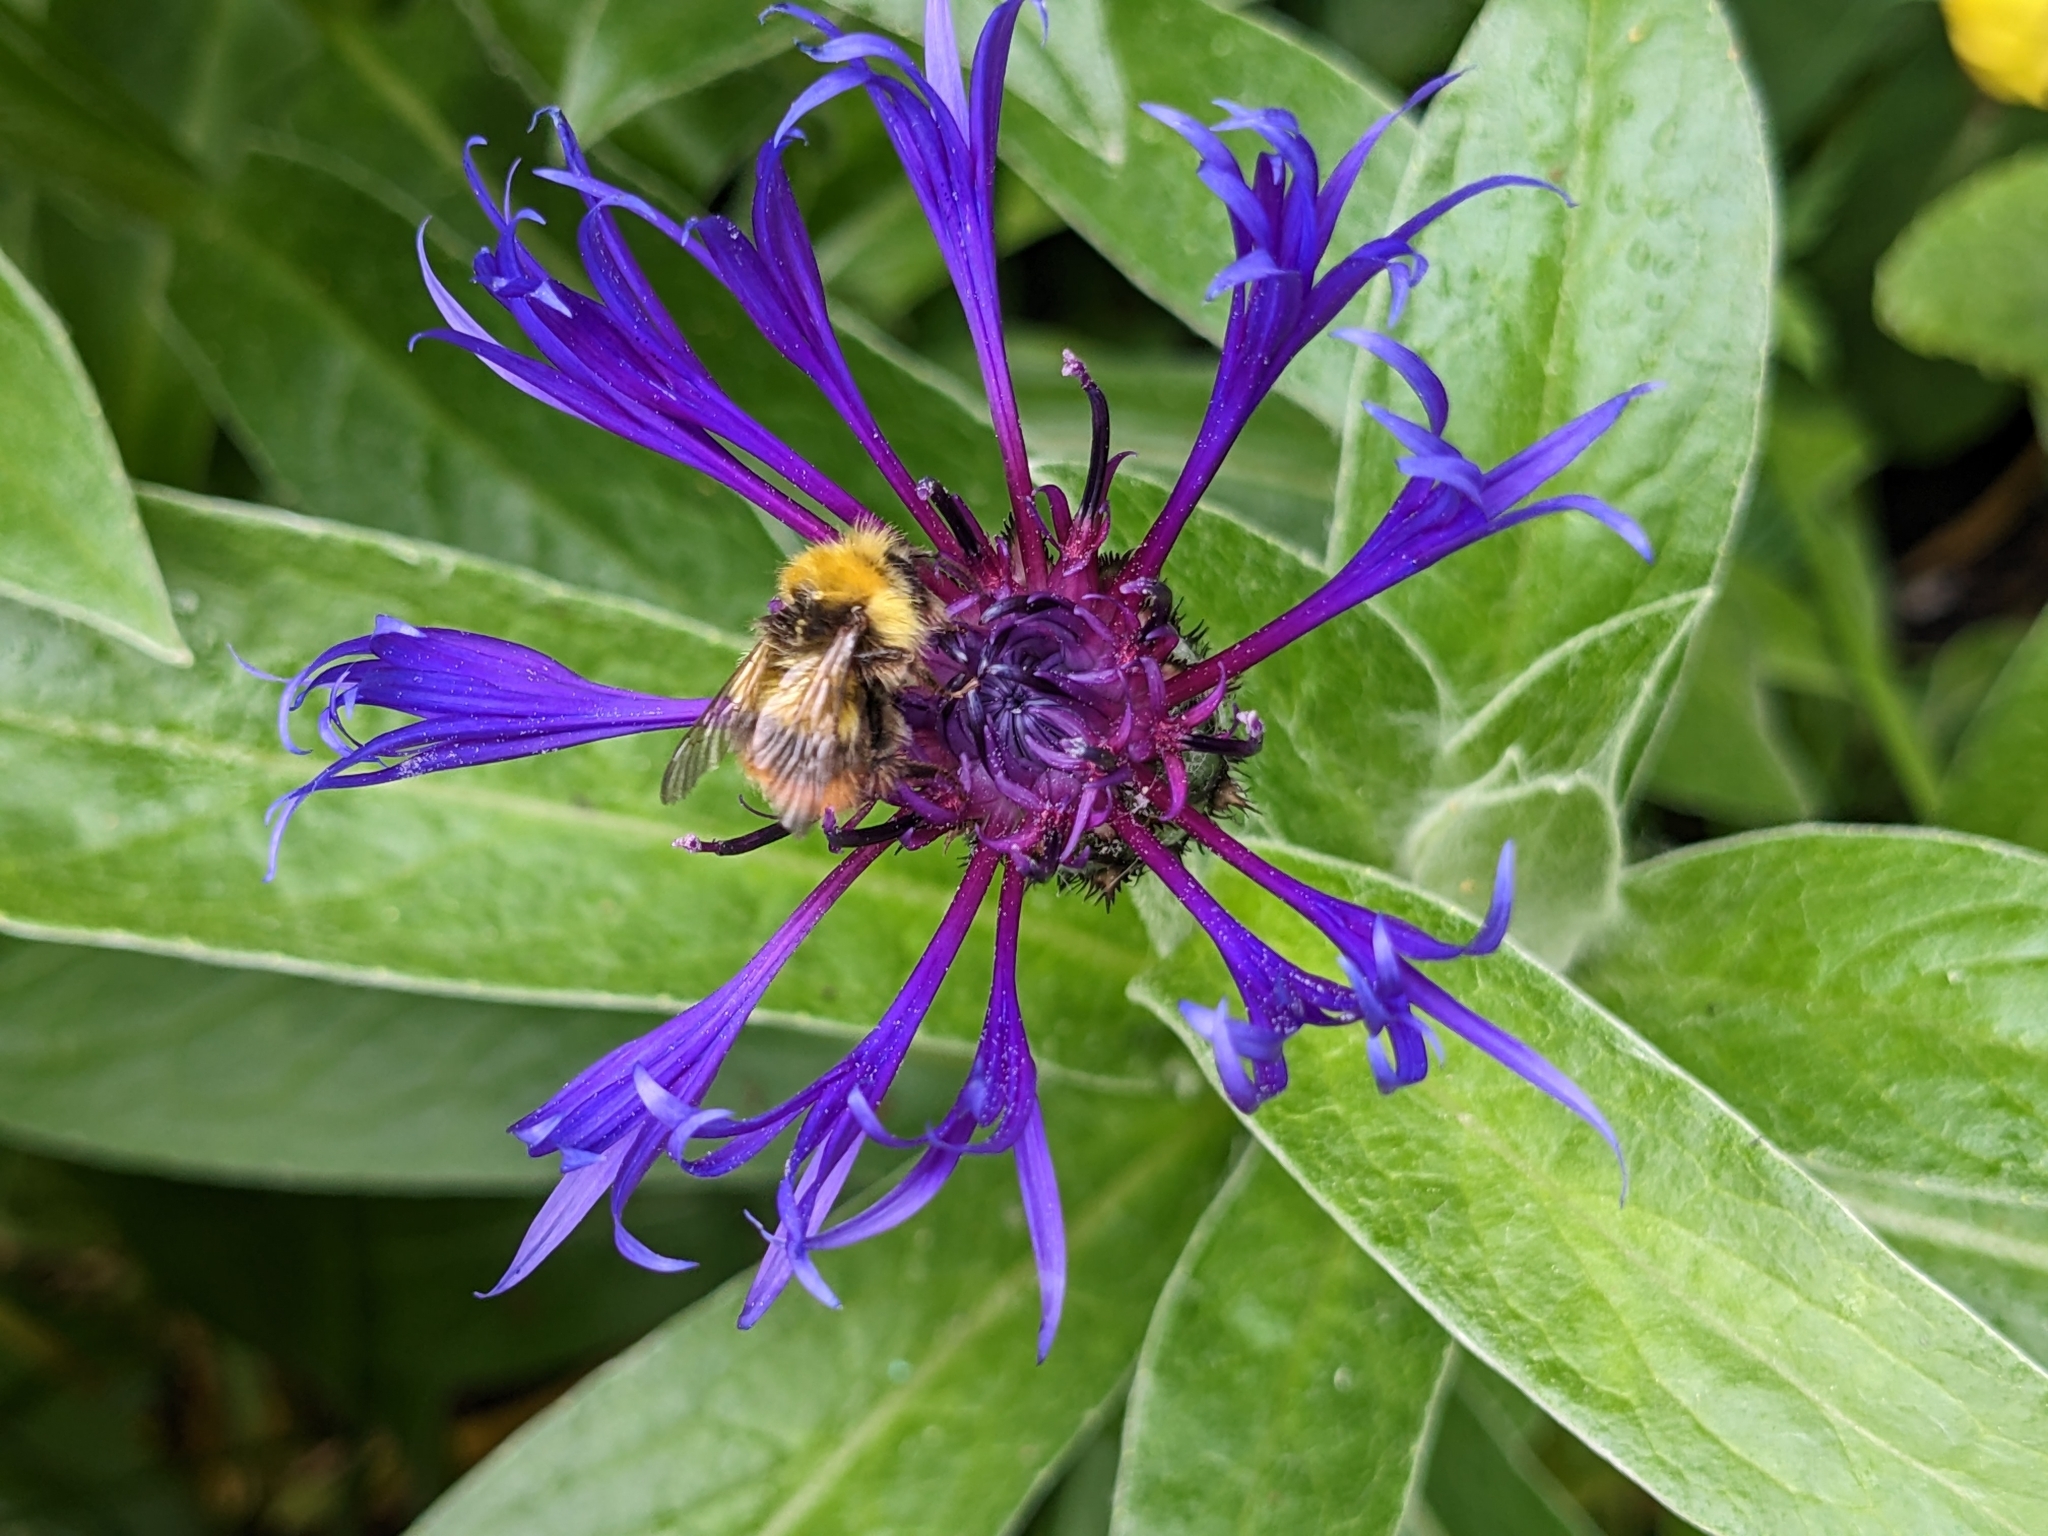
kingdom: Animalia
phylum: Arthropoda
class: Insecta
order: Hymenoptera
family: Apidae
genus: Bombus
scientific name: Bombus pratorum
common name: Early humble-bee
